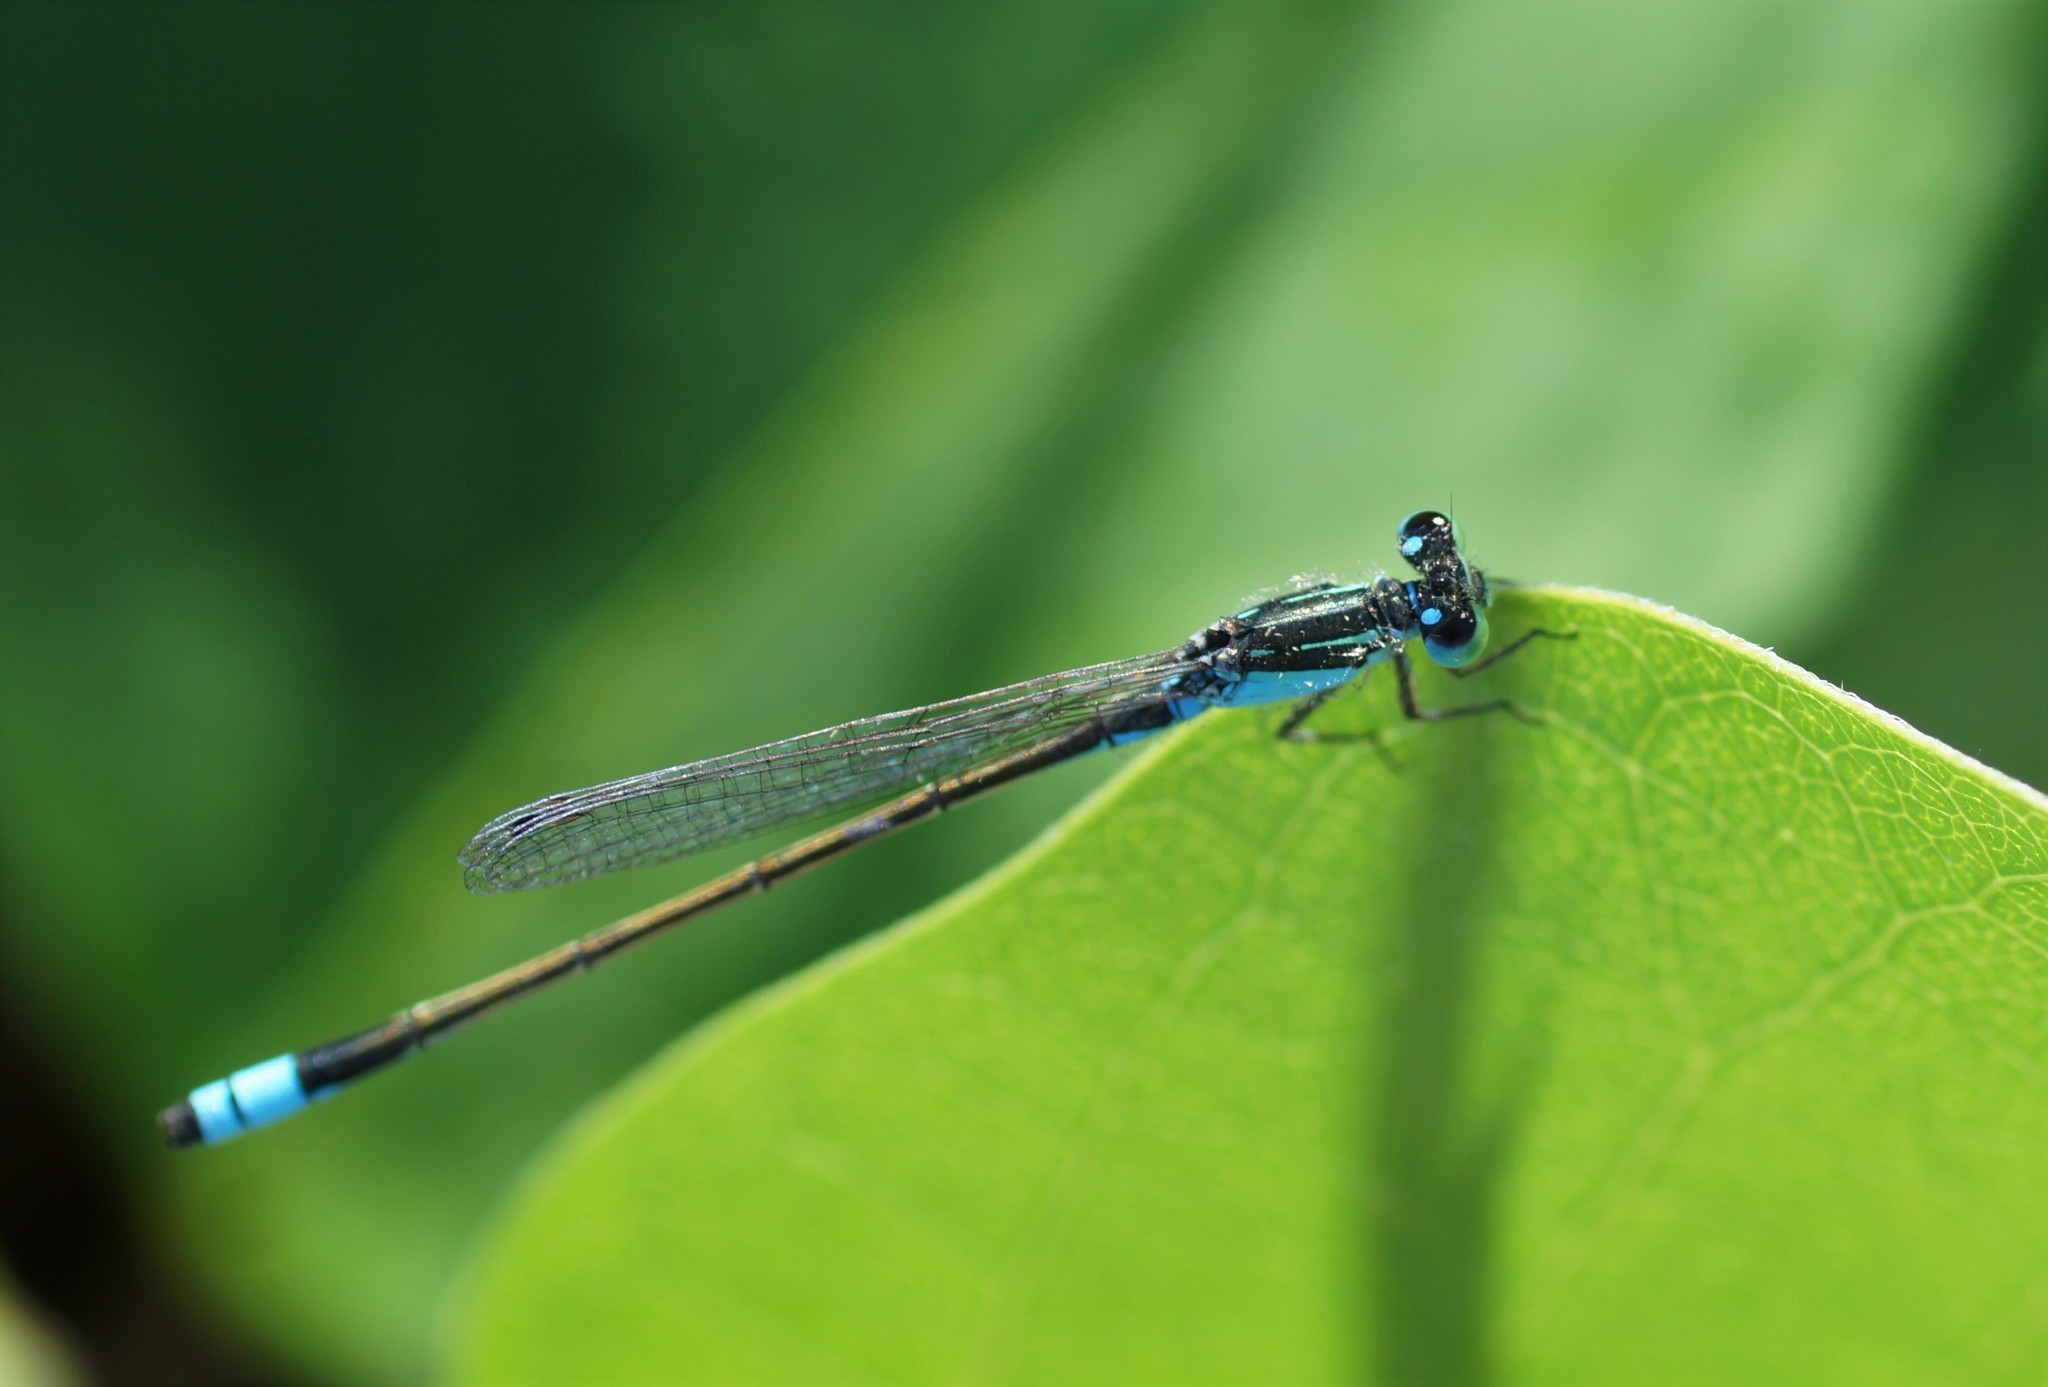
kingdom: Animalia
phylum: Arthropoda
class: Insecta
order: Odonata
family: Coenagrionidae
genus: Ischnura
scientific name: Ischnura heterosticta
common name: Common bluetail
